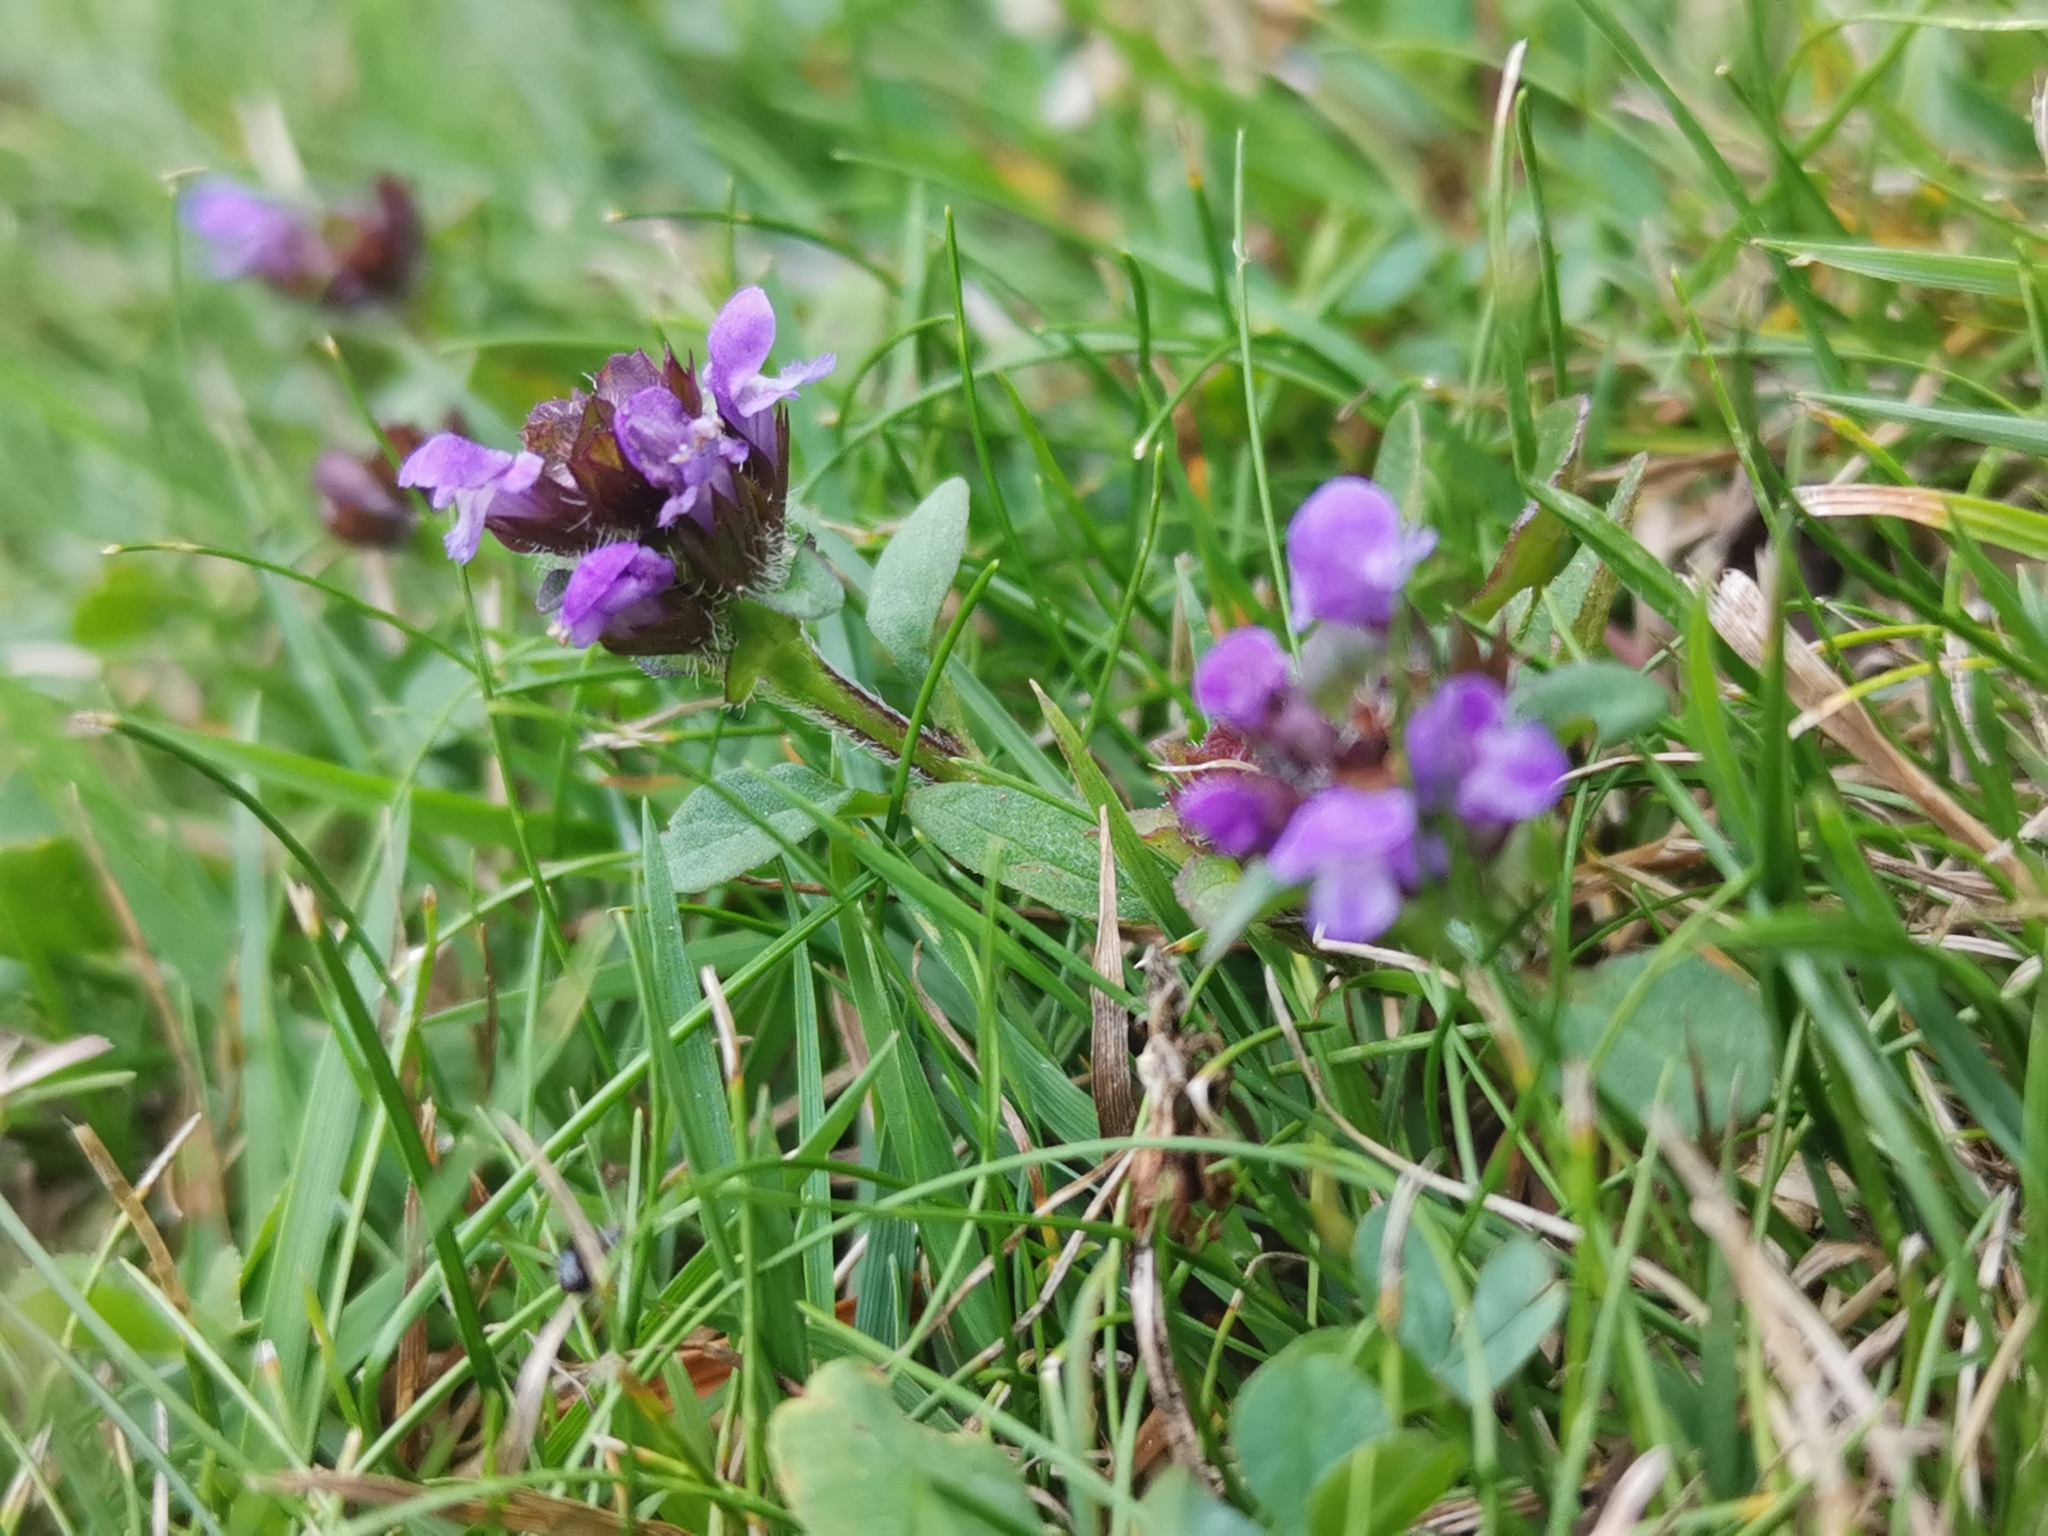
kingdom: Plantae
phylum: Tracheophyta
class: Magnoliopsida
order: Lamiales
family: Lamiaceae
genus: Prunella
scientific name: Prunella vulgaris
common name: Heal-all
